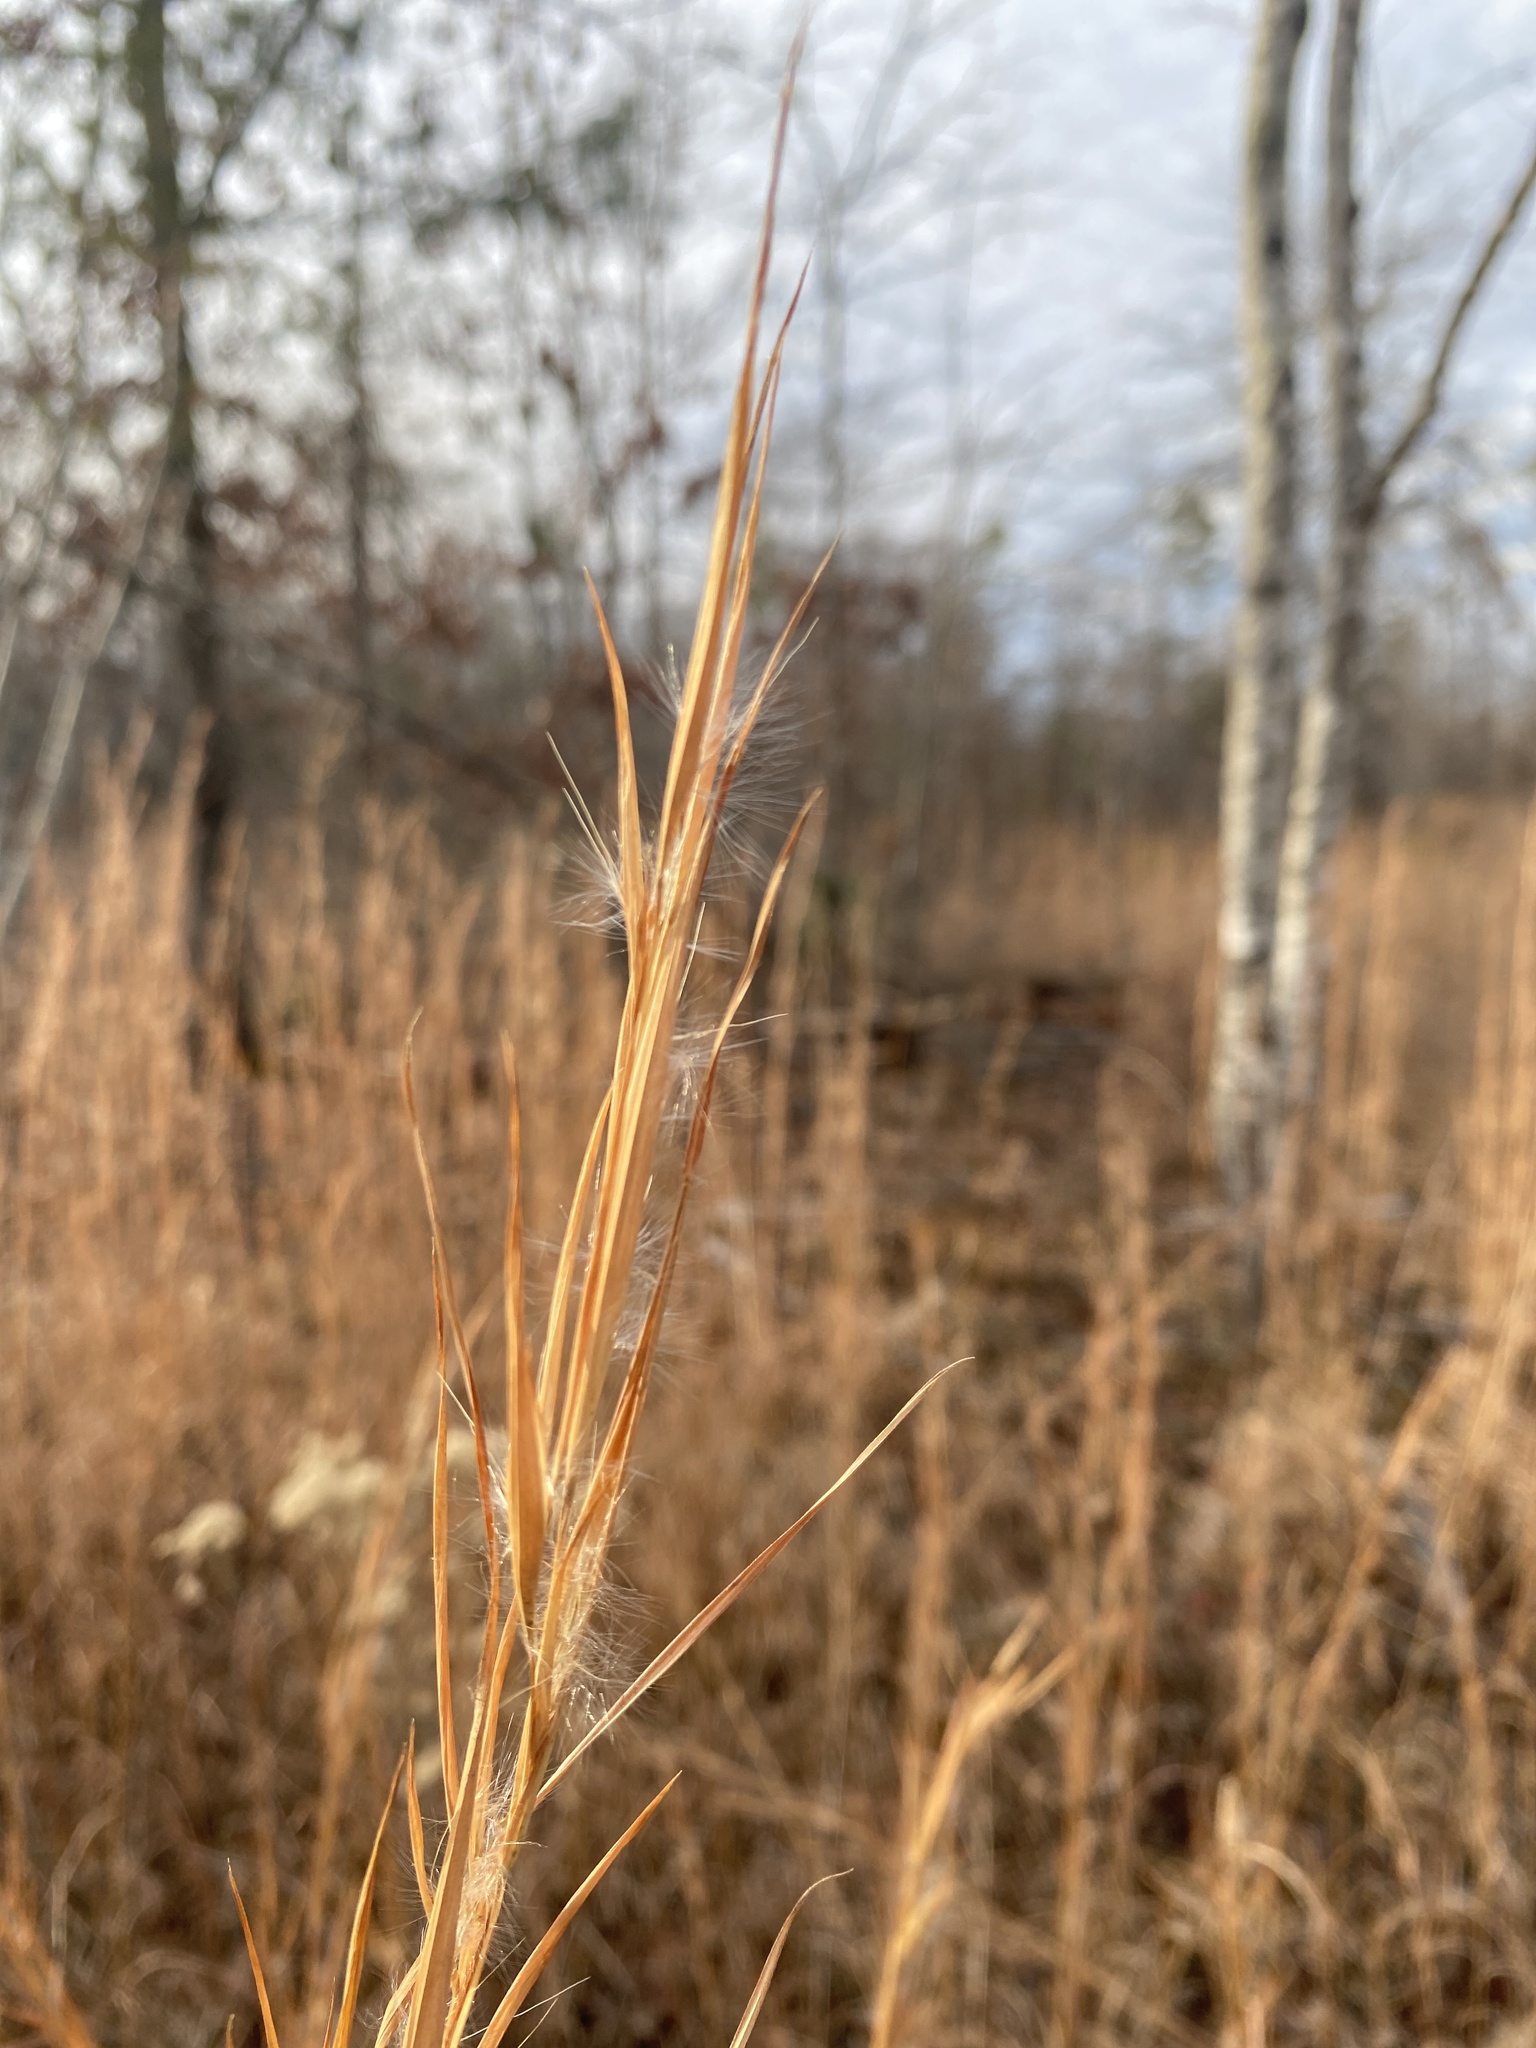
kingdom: Plantae
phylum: Tracheophyta
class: Liliopsida
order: Poales
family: Poaceae
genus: Andropogon
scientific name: Andropogon virginicus
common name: Broomsedge bluestem
